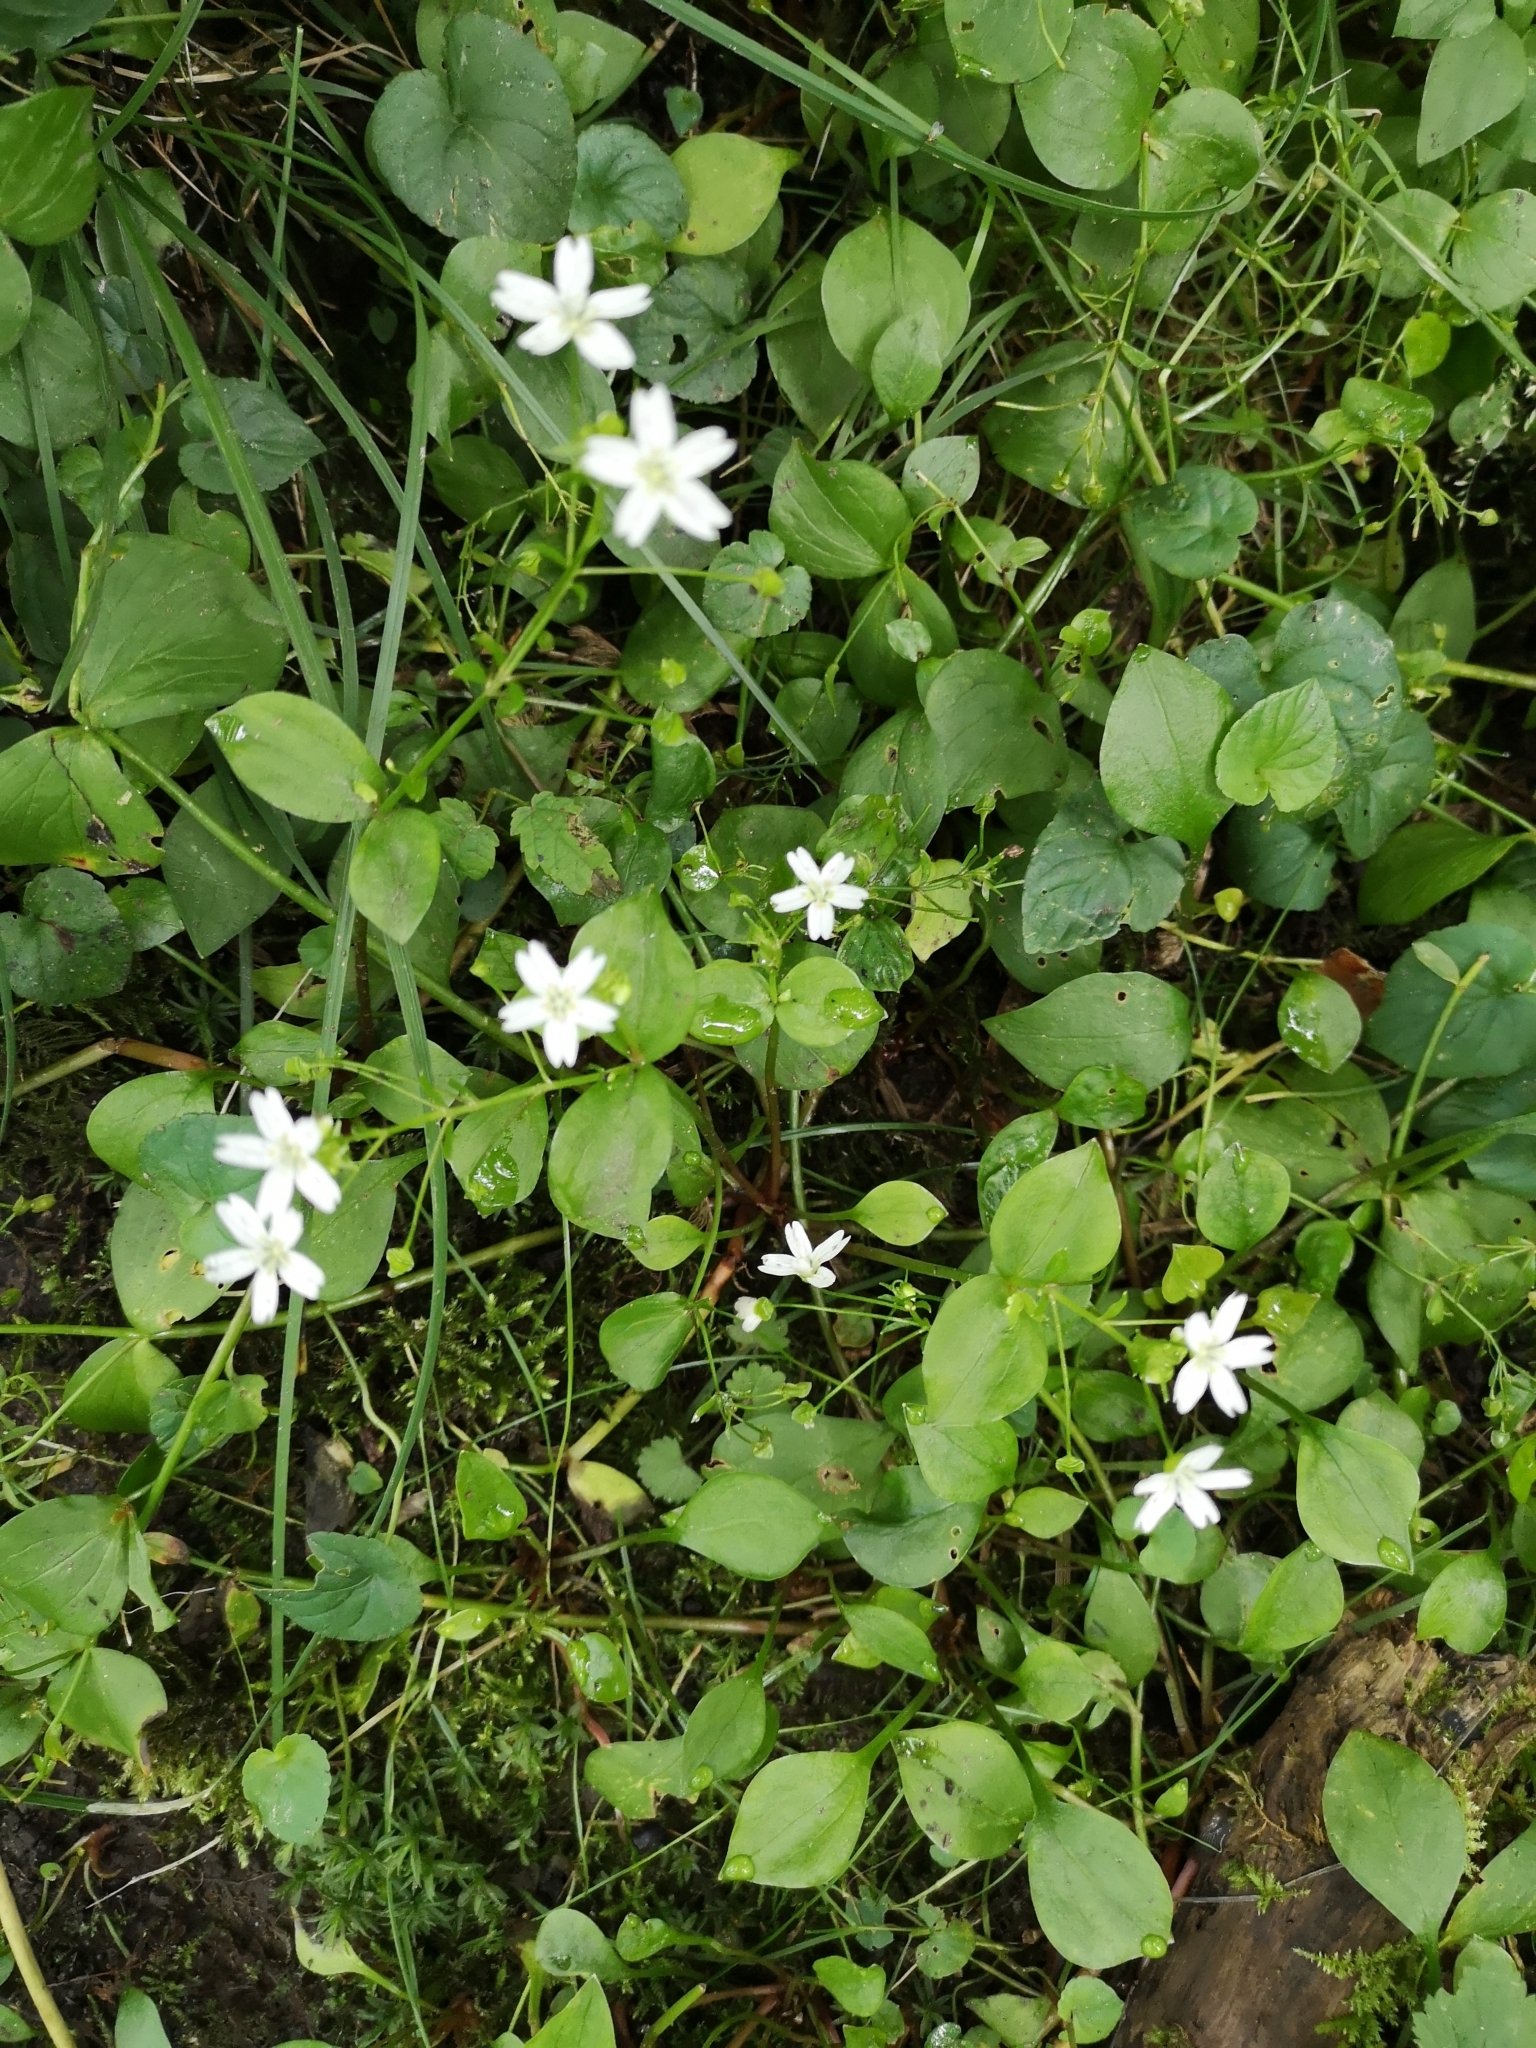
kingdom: Plantae
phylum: Tracheophyta
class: Magnoliopsida
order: Caryophyllales
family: Montiaceae
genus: Claytonia
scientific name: Claytonia sibirica
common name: Pink purslane
